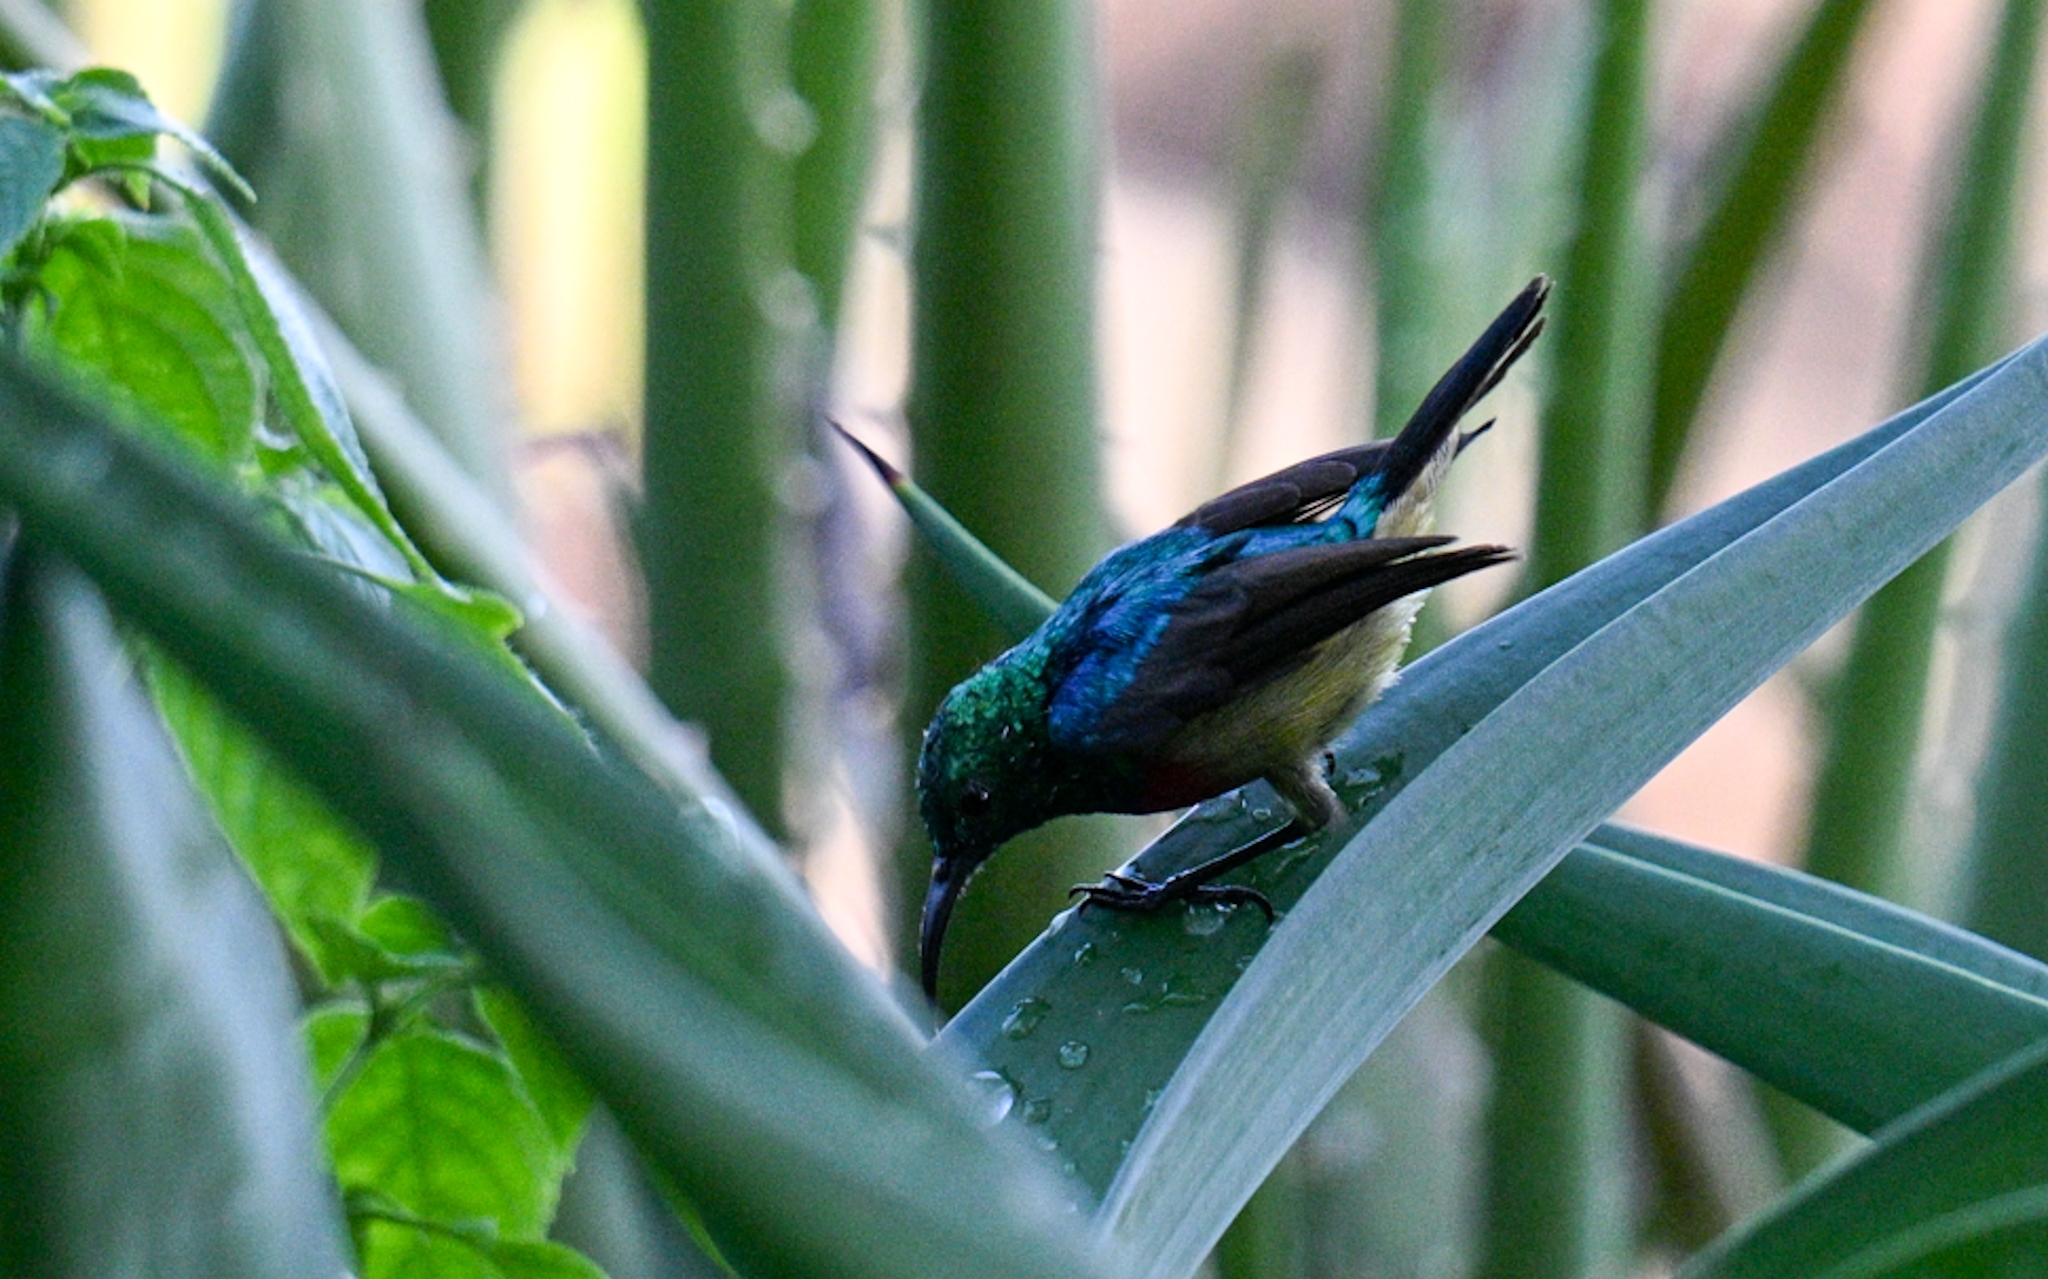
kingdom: Animalia
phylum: Chordata
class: Aves
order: Passeriformes
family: Nectariniidae
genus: Cinnyris
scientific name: Cinnyris venustus
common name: Variable sunbird
